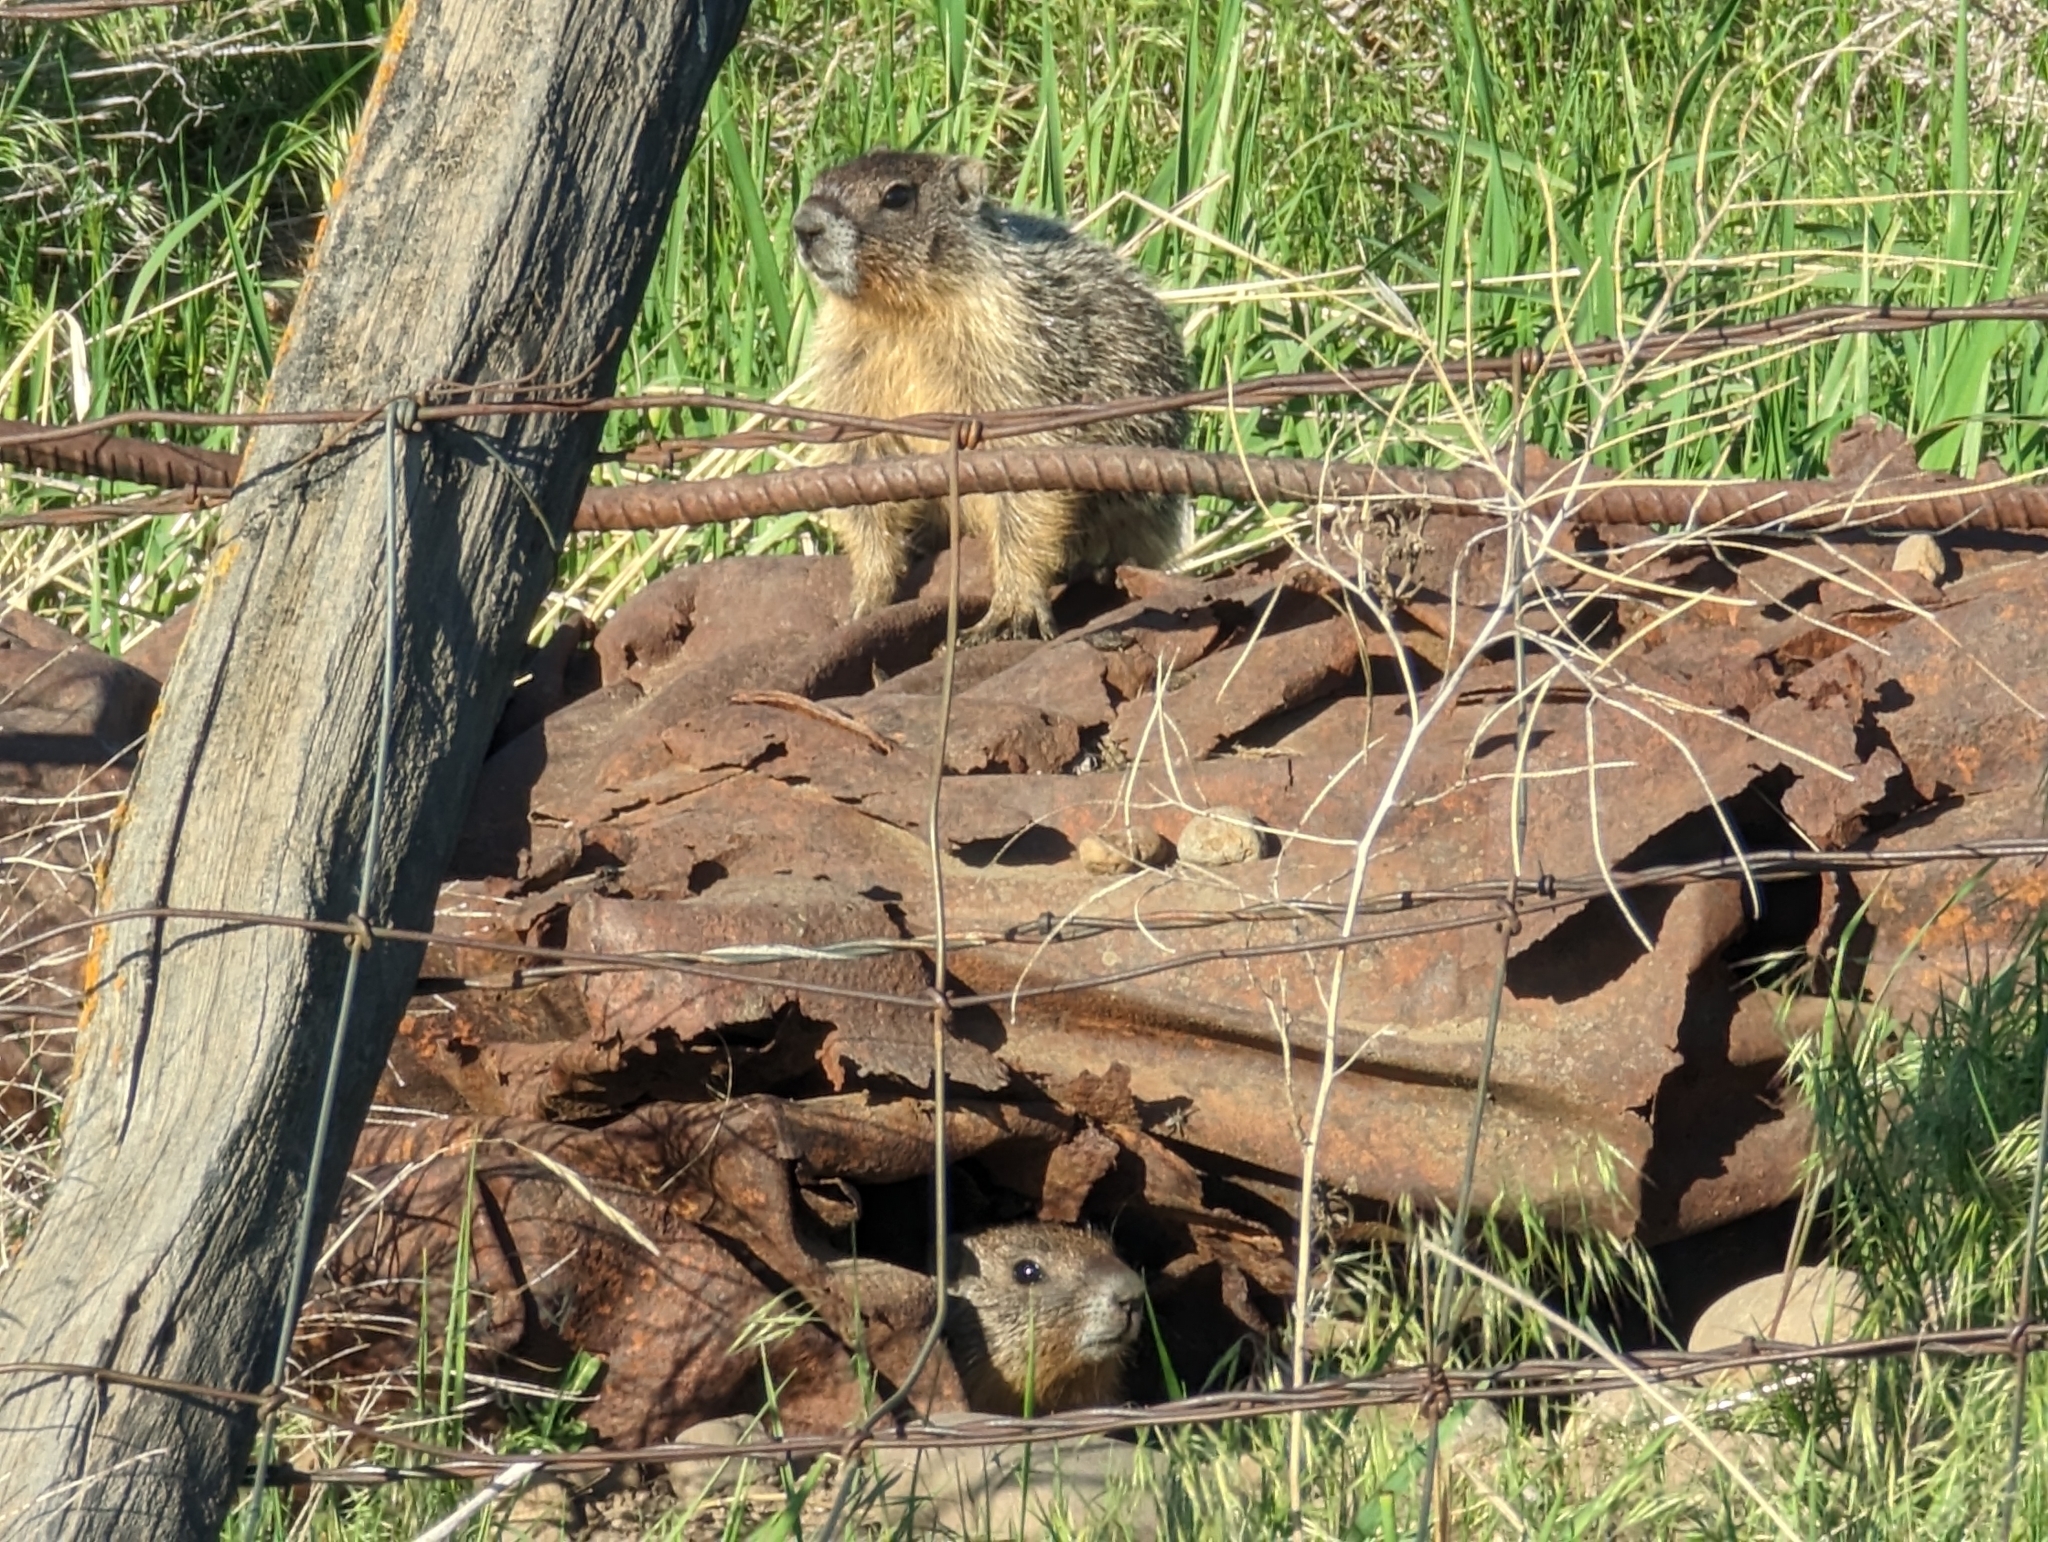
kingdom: Animalia
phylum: Chordata
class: Mammalia
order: Rodentia
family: Sciuridae
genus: Marmota
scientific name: Marmota flaviventris
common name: Yellow-bellied marmot
